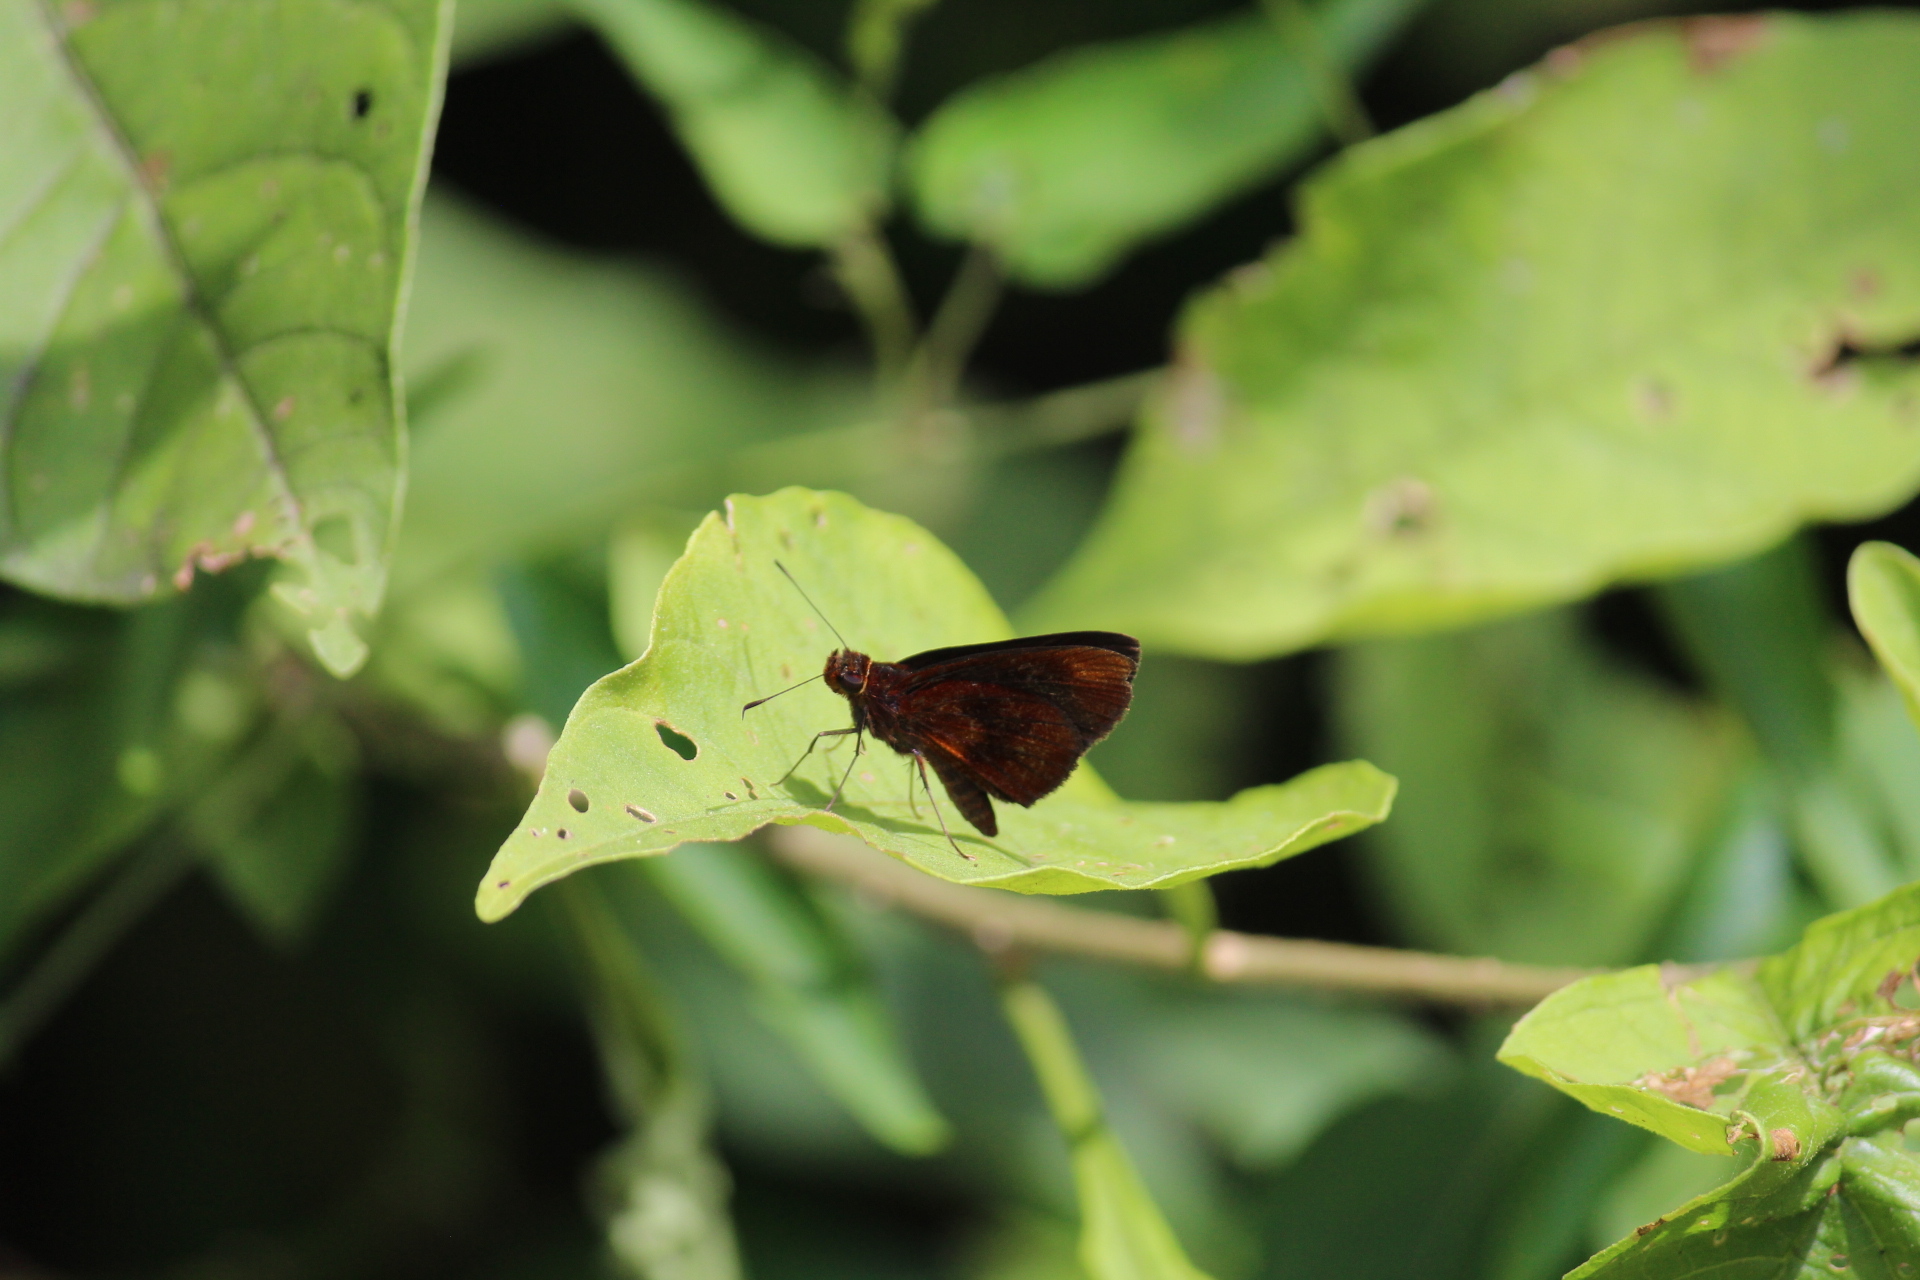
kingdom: Animalia
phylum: Arthropoda
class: Insecta
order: Lepidoptera
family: Hesperiidae
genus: Miltomiges
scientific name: Miltomiges cinnamomea
